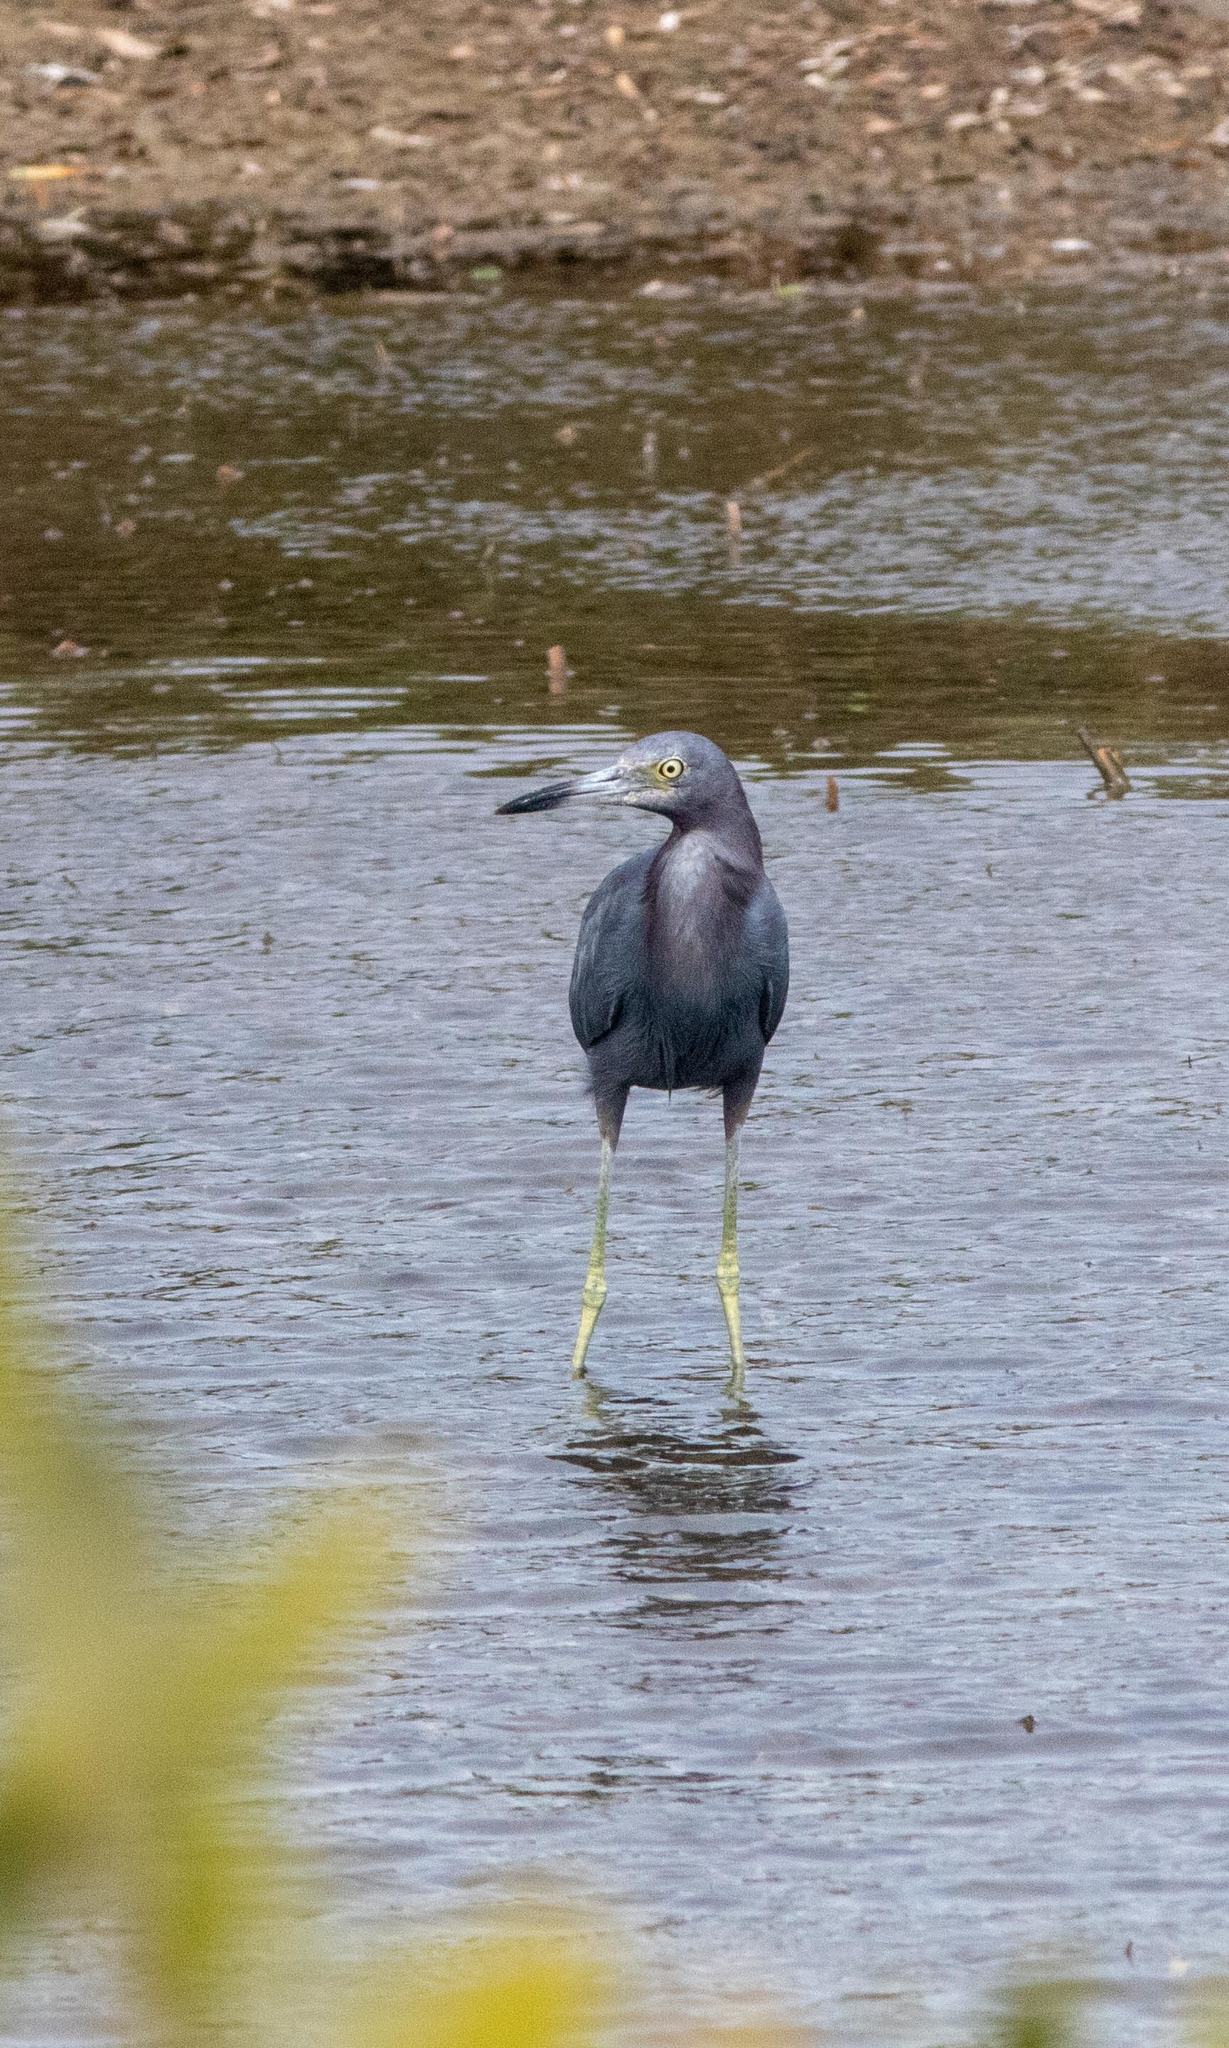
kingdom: Animalia
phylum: Chordata
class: Aves
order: Pelecaniformes
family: Ardeidae
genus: Egretta
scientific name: Egretta caerulea
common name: Little blue heron
